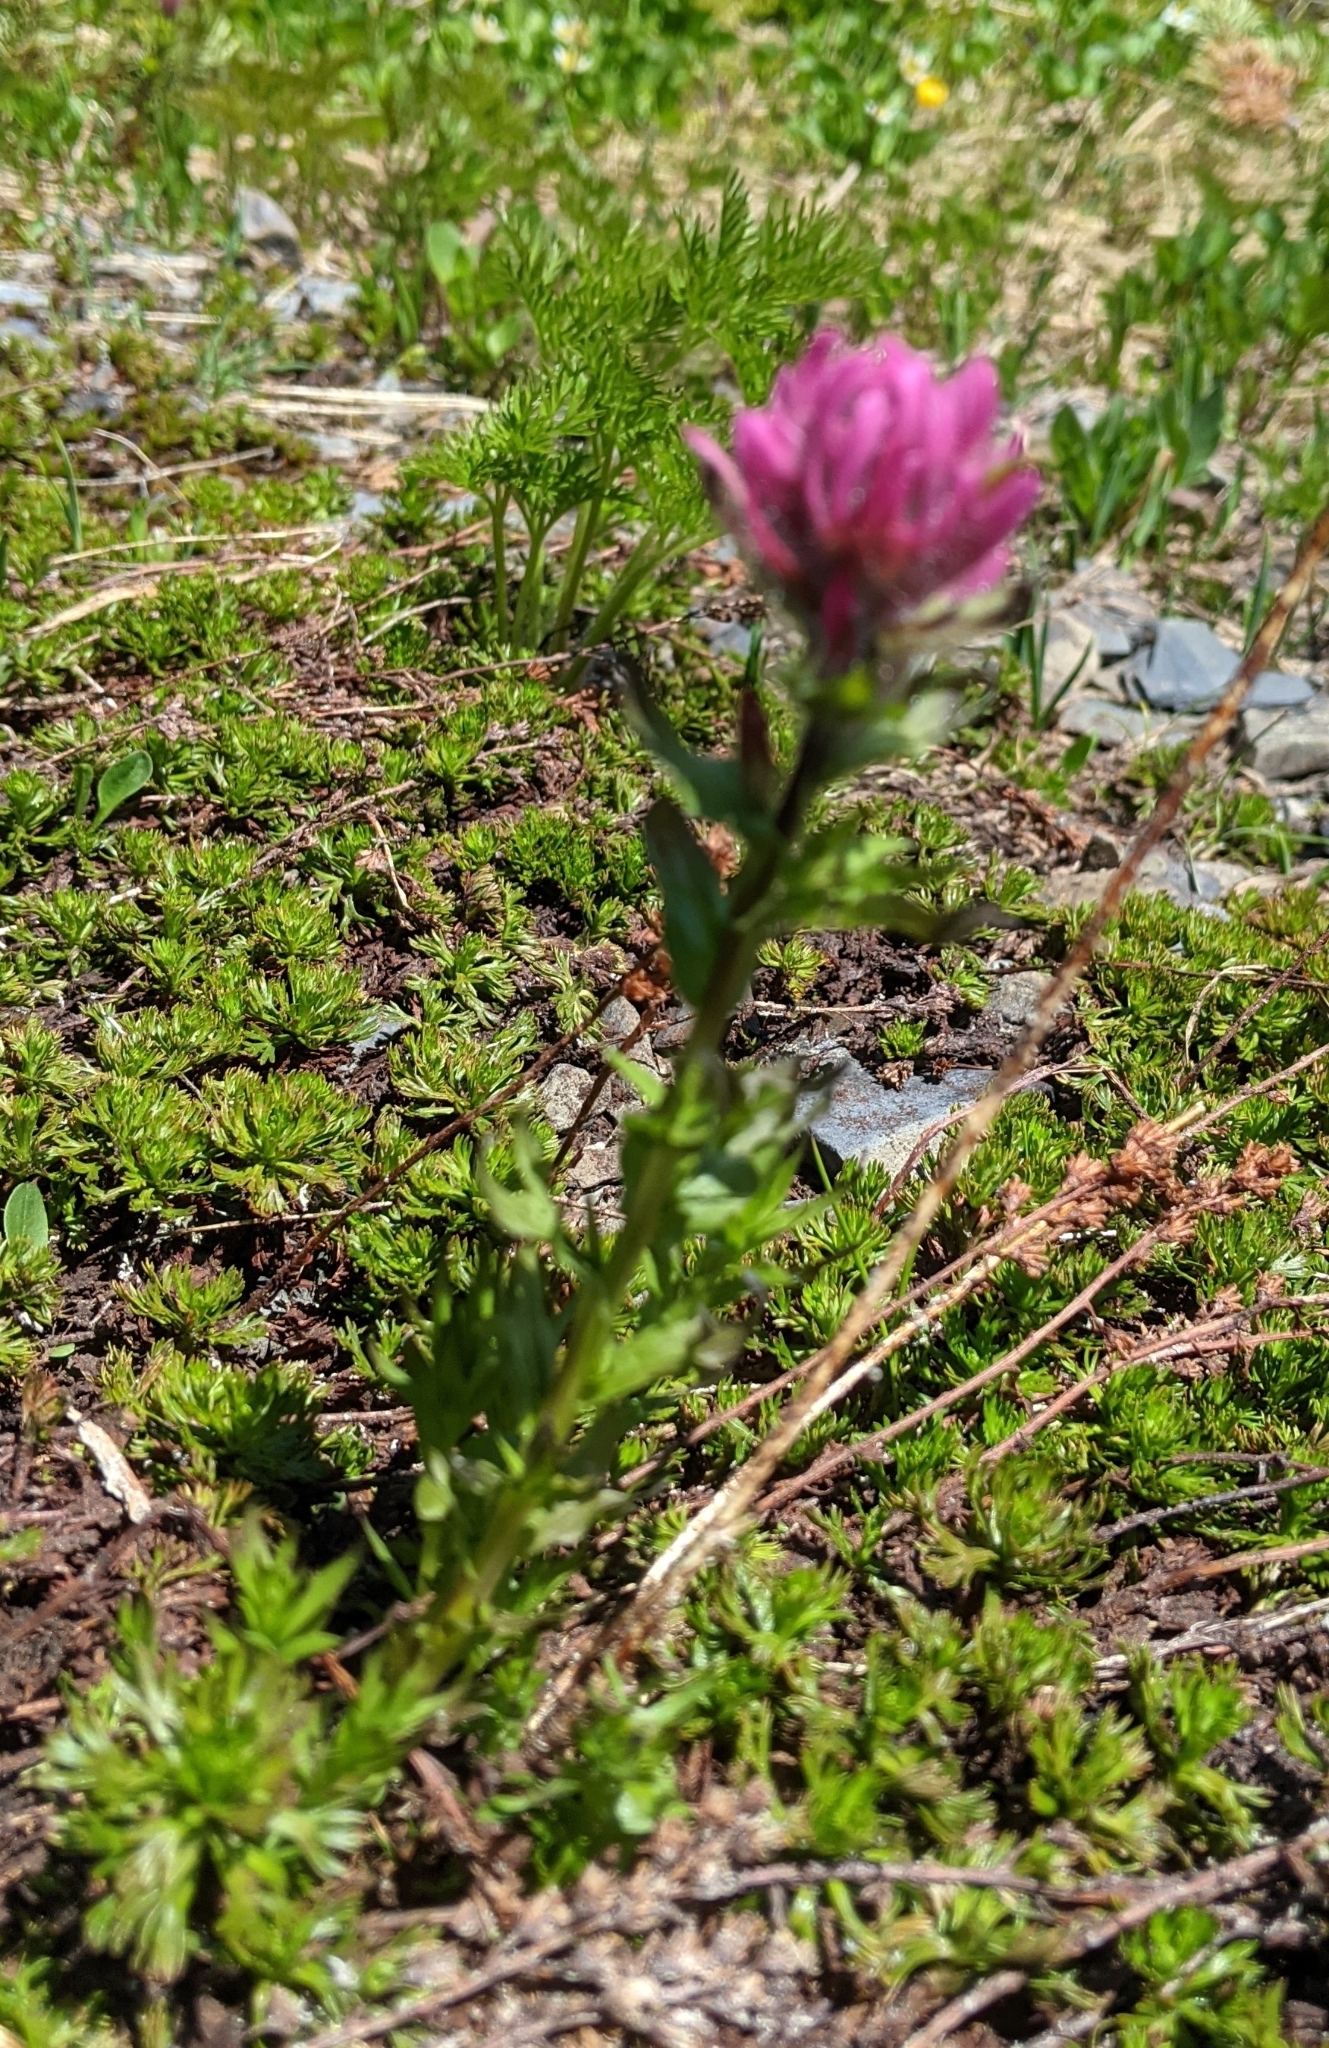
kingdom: Plantae
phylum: Tracheophyta
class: Magnoliopsida
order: Lamiales
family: Orobanchaceae
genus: Castilleja
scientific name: Castilleja parviflora
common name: Mountain paintbrush
